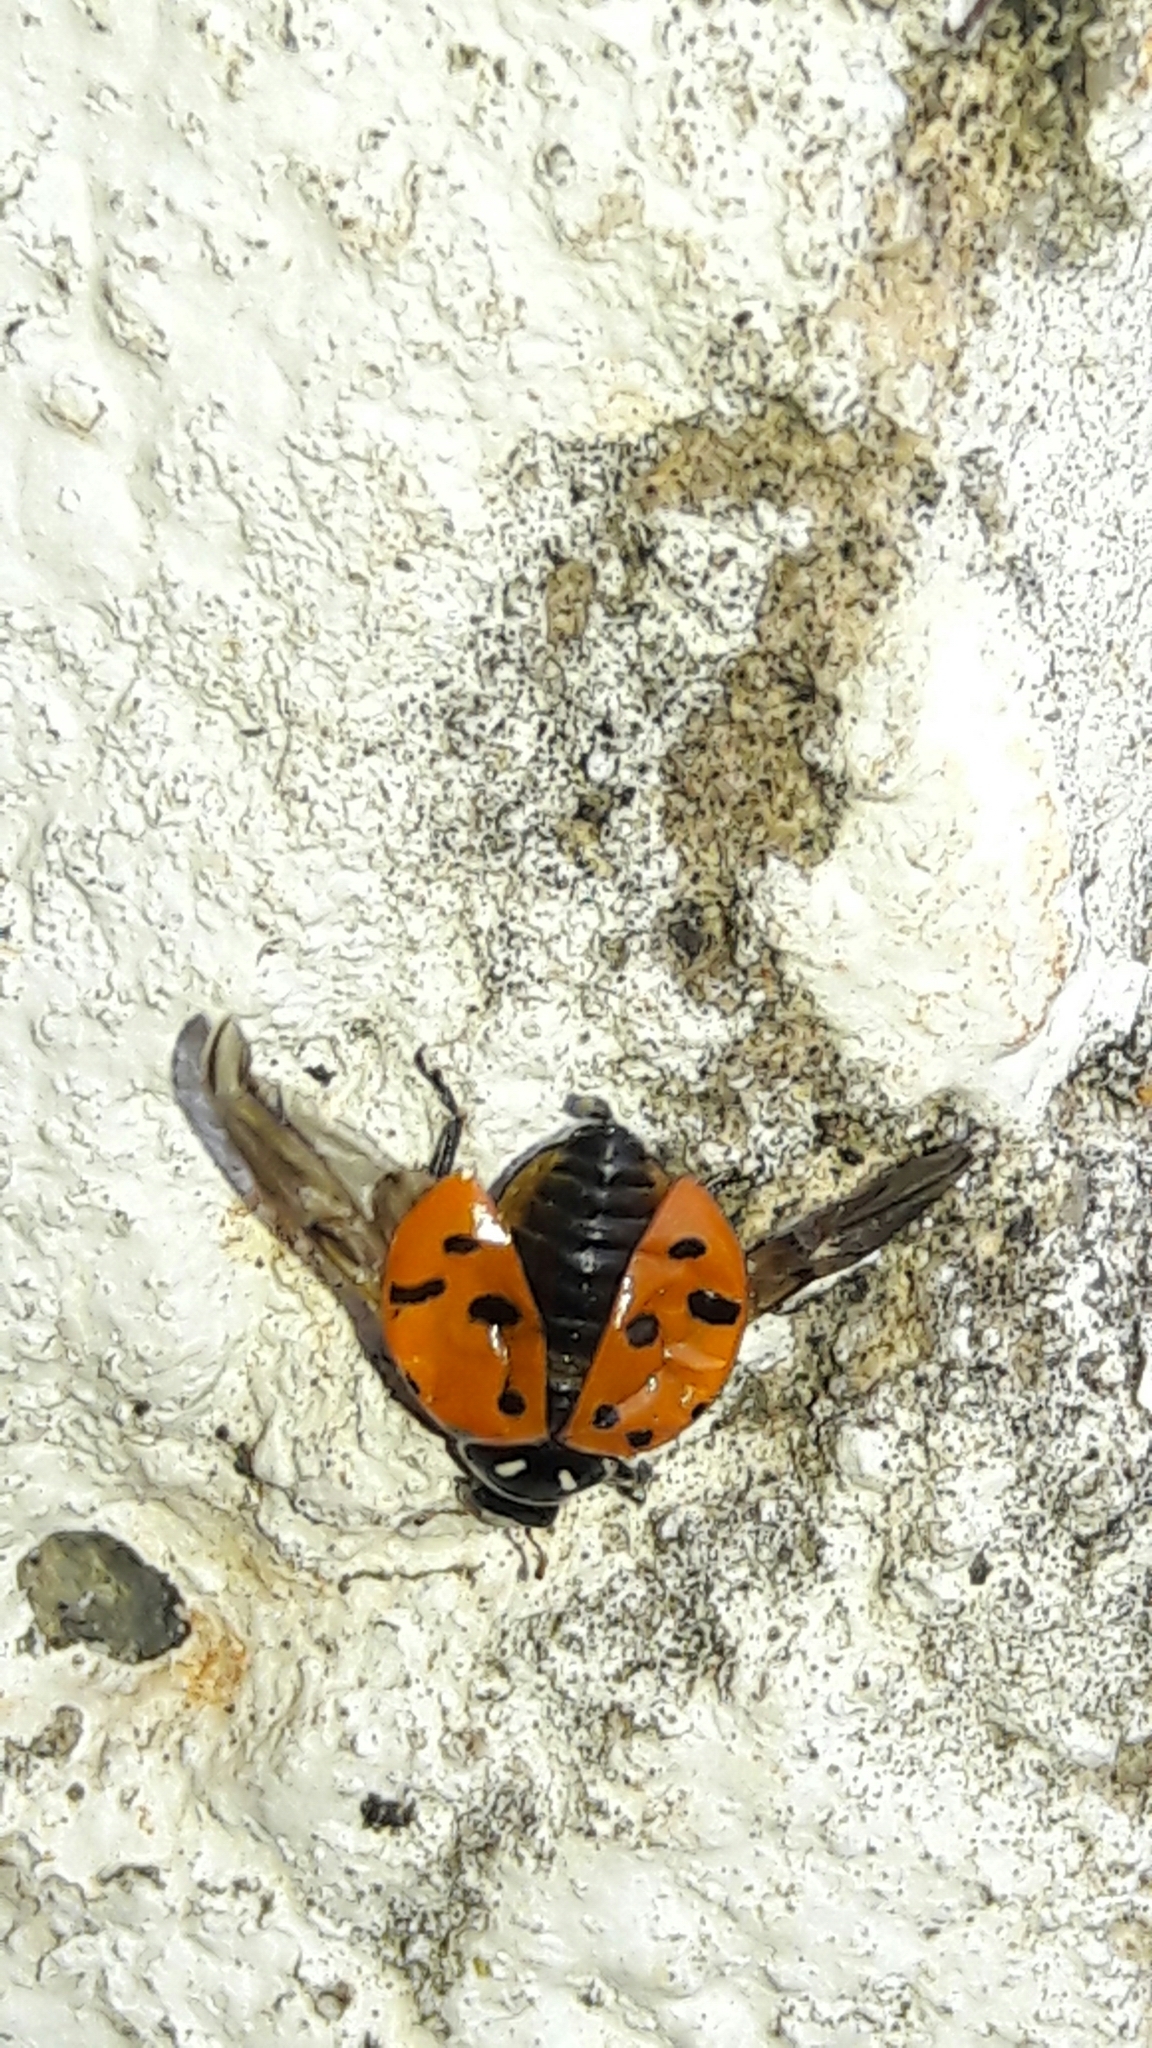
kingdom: Animalia
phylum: Arthropoda
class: Insecta
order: Coleoptera
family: Coccinellidae
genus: Hippodamia
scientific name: Hippodamia convergens
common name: Convergent lady beetle
